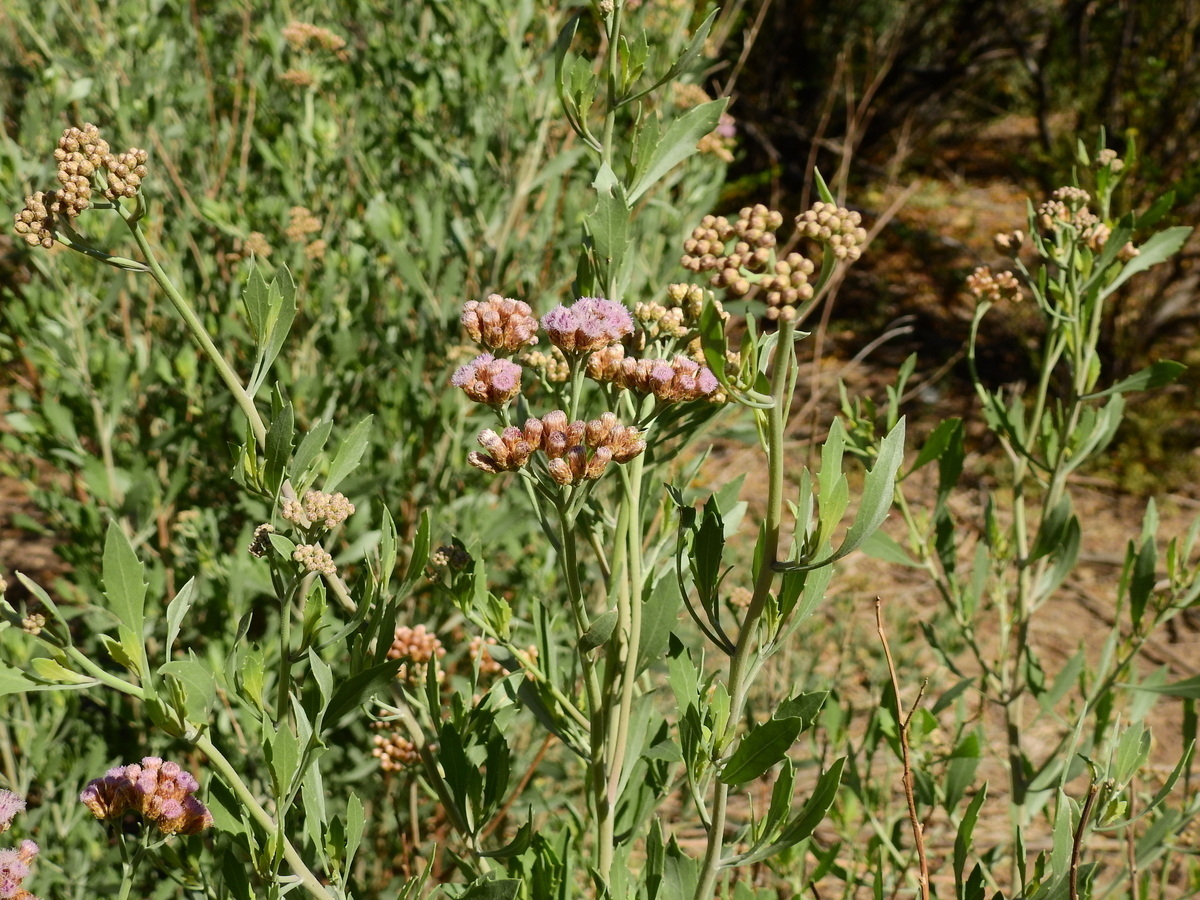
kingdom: Plantae
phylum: Tracheophyta
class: Magnoliopsida
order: Asterales
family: Asteraceae
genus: Tessaria
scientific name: Tessaria absinthioides
